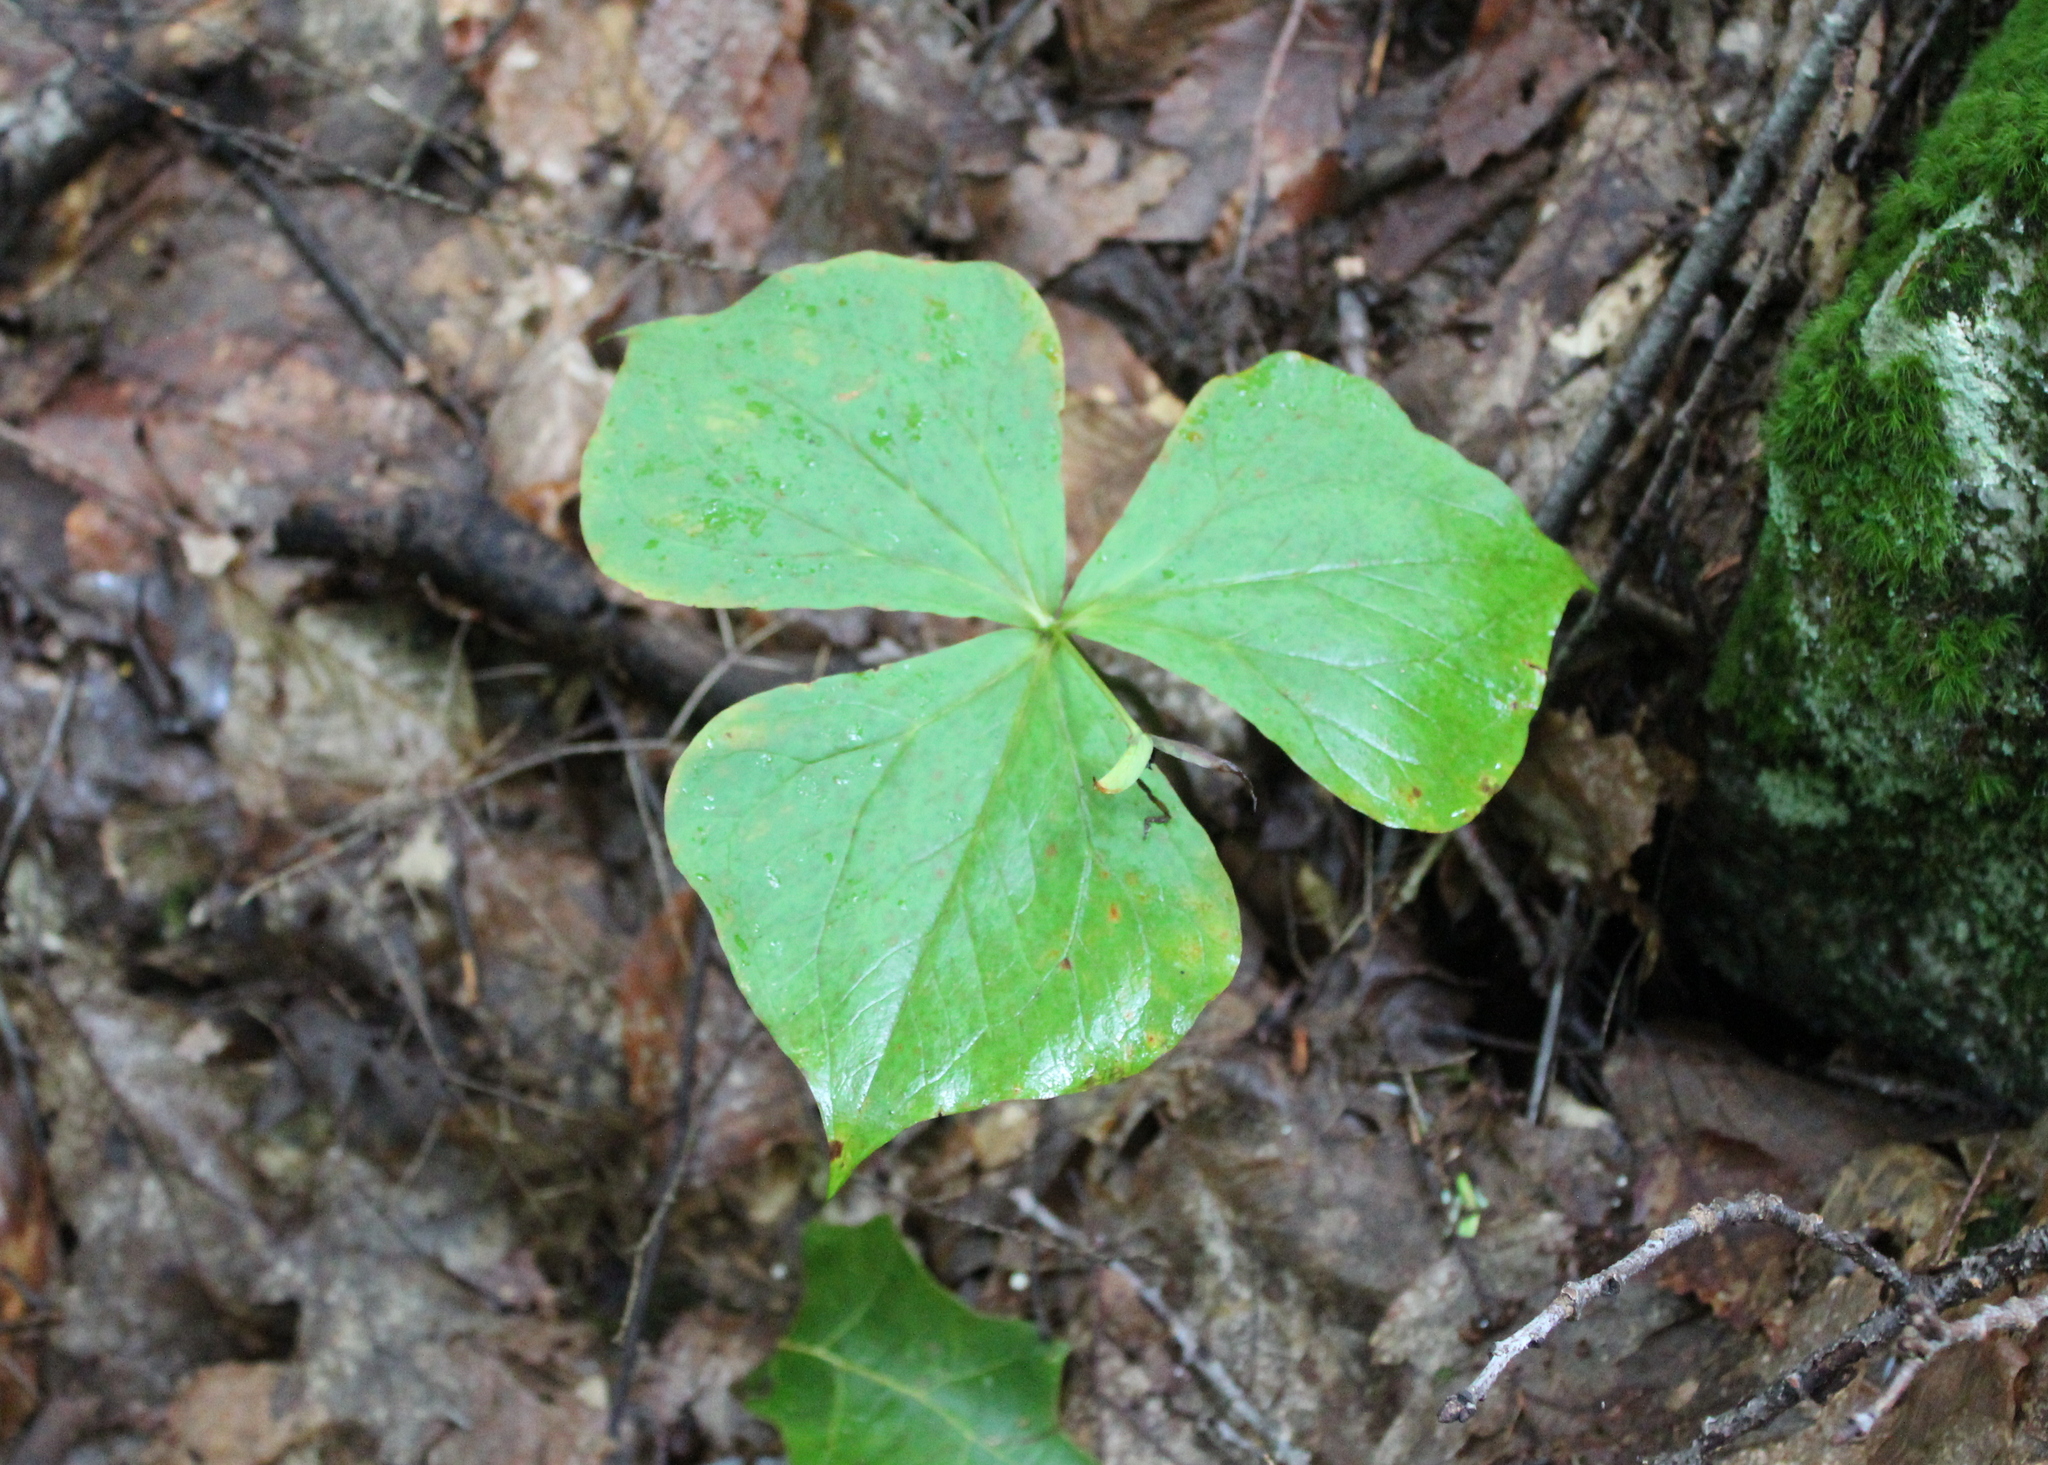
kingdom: Plantae
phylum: Tracheophyta
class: Liliopsida
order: Liliales
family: Melanthiaceae
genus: Trillium
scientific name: Trillium erectum
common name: Purple trillium
